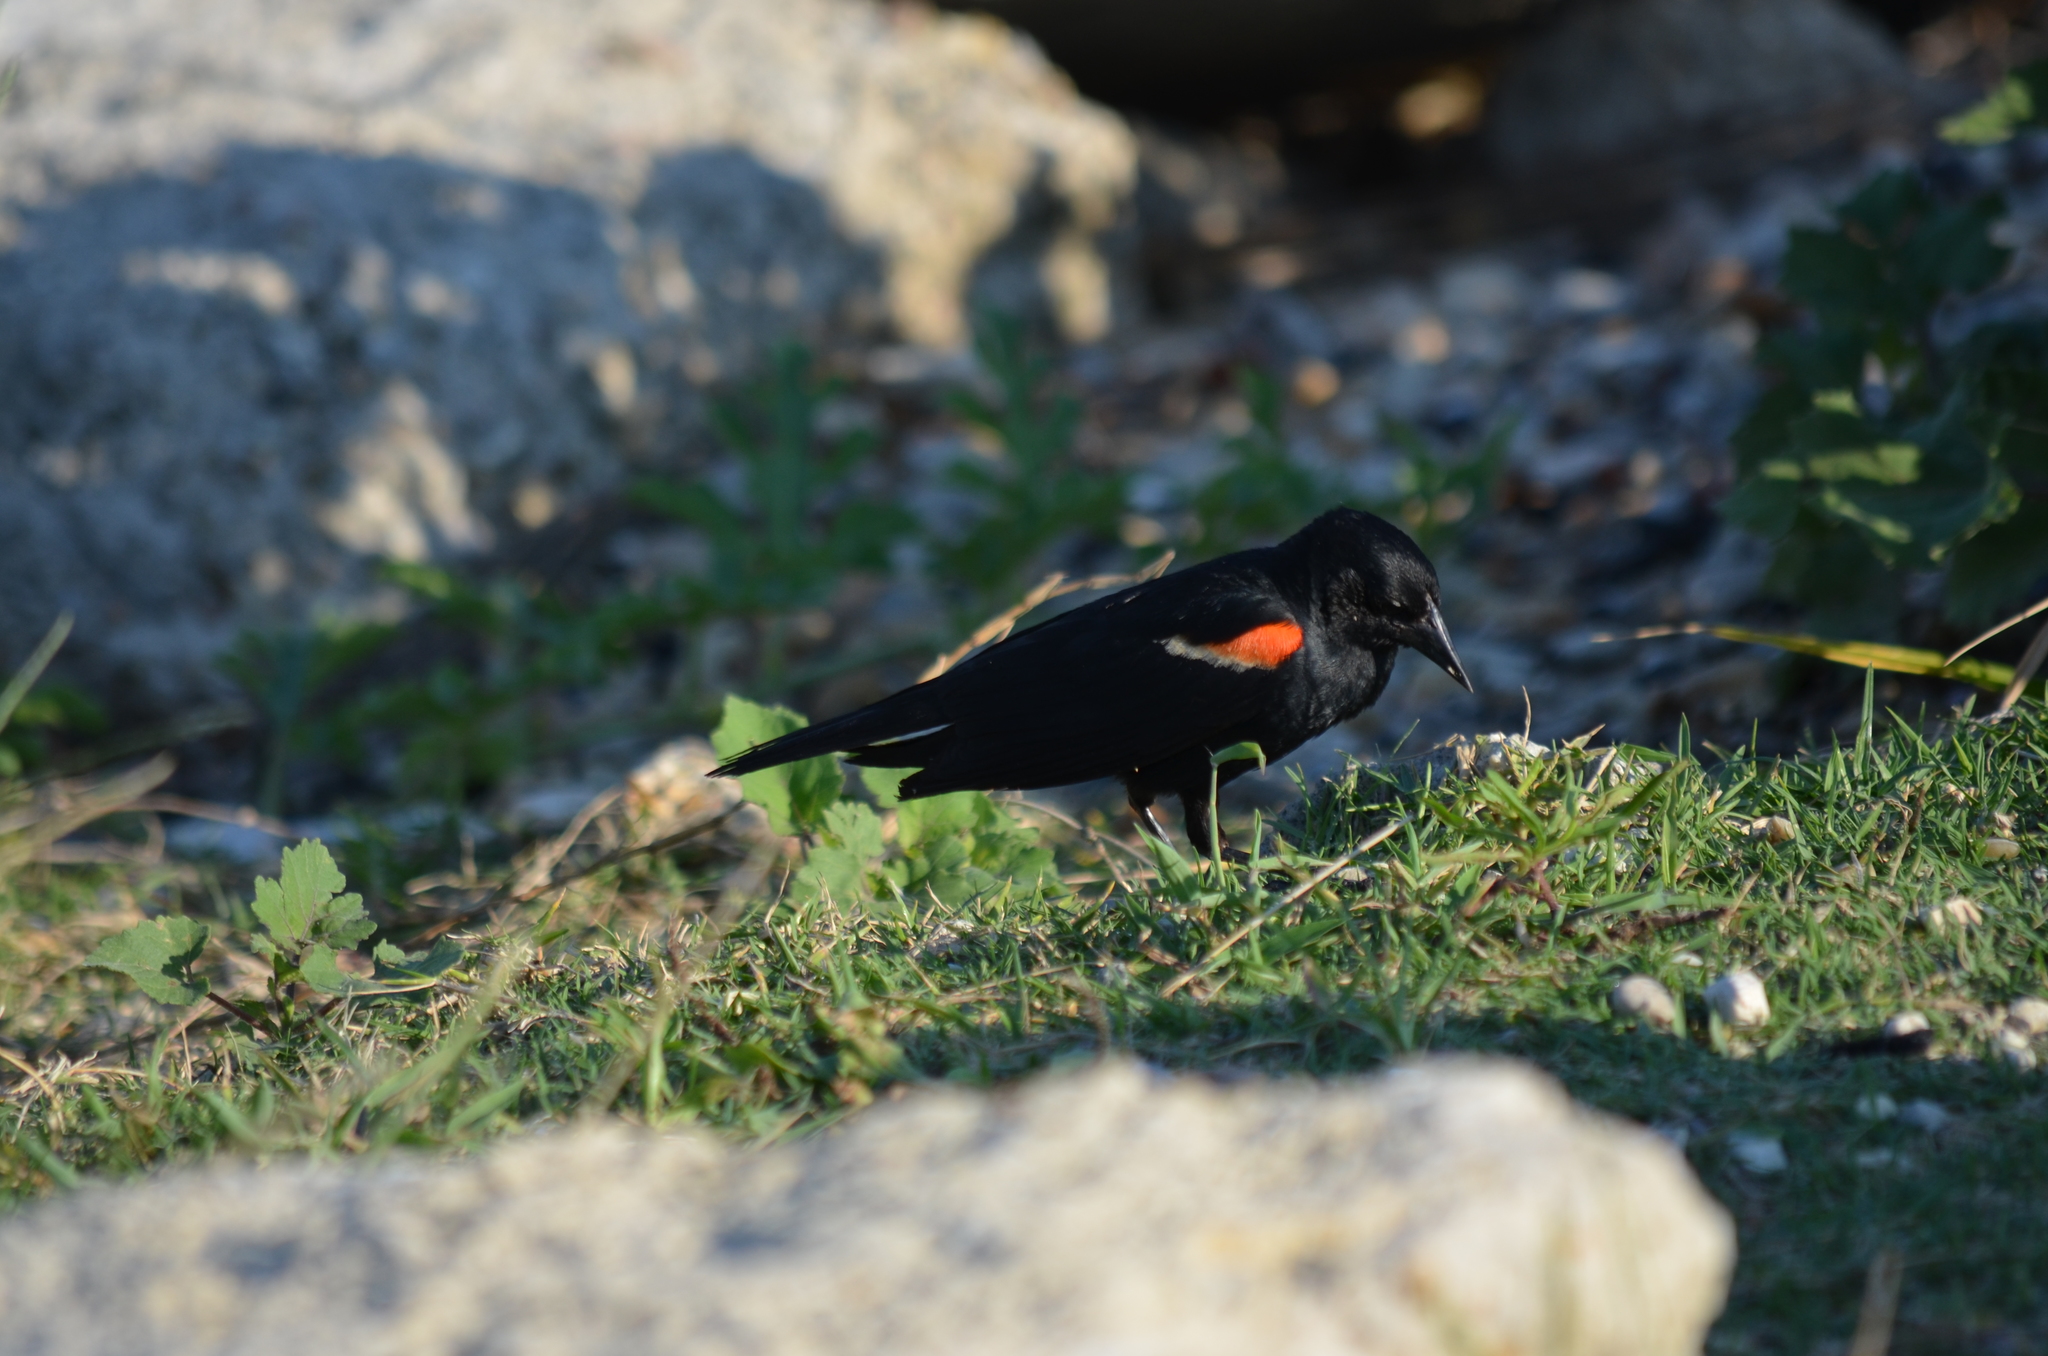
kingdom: Animalia
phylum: Chordata
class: Aves
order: Passeriformes
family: Icteridae
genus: Agelaius
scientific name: Agelaius phoeniceus
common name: Red-winged blackbird
